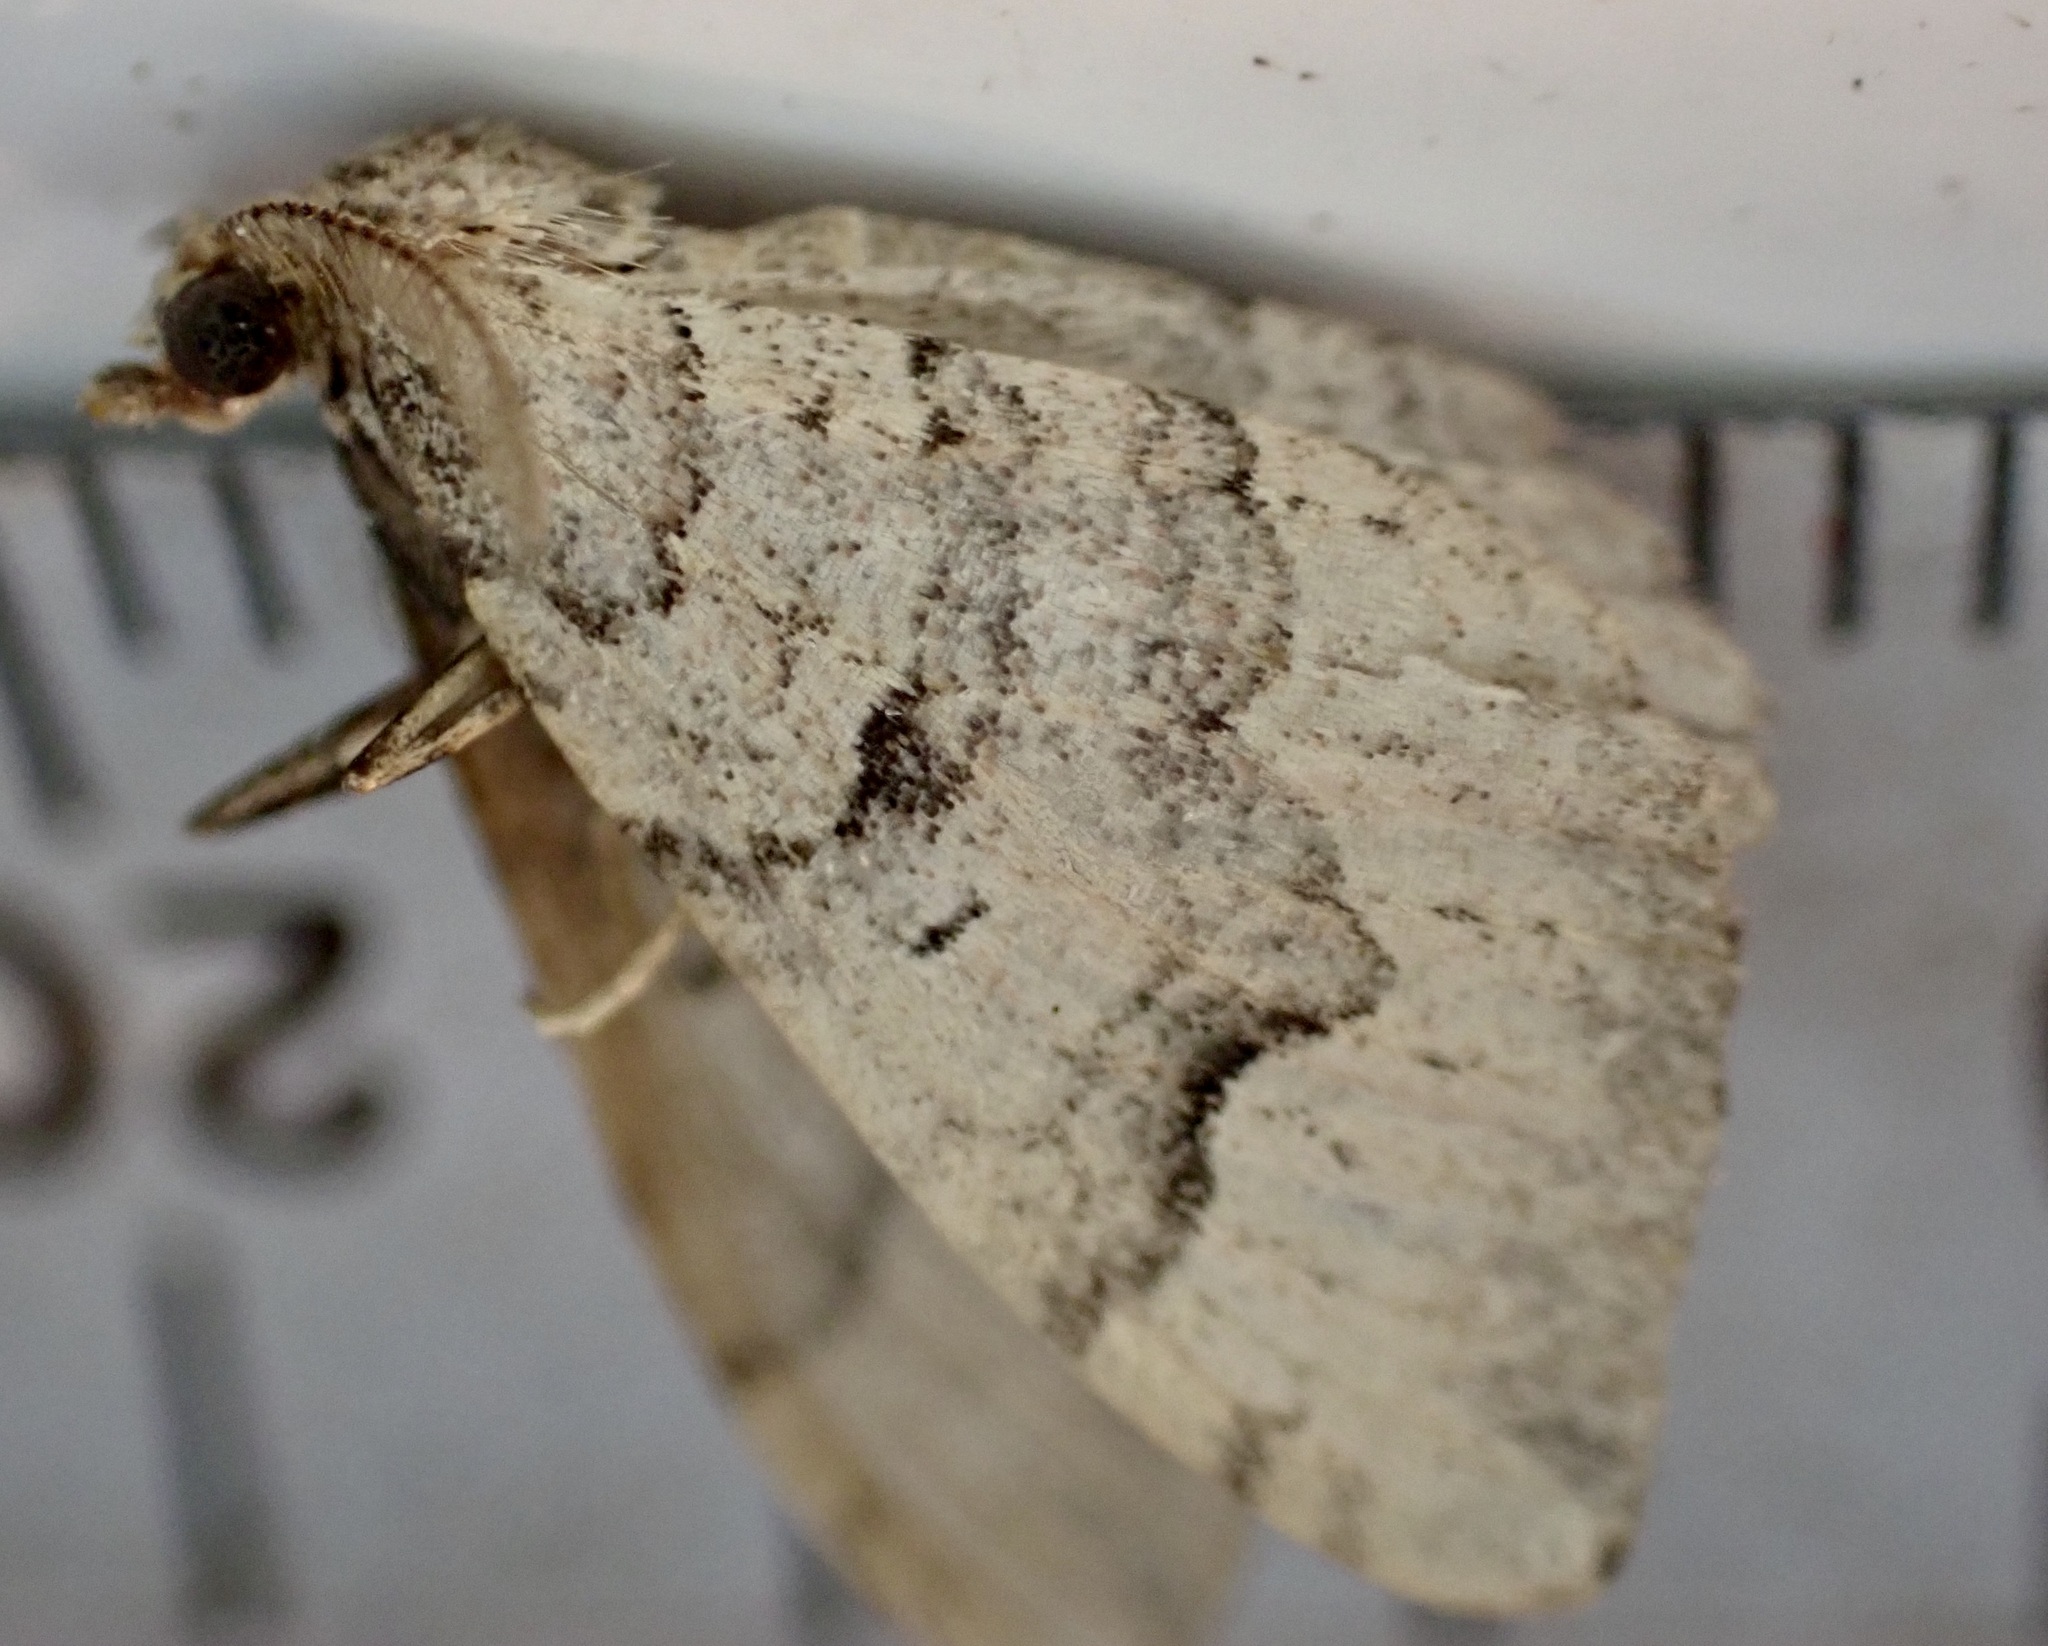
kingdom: Animalia
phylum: Arthropoda
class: Insecta
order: Lepidoptera
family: Geometridae
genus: Epyaxa
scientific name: Epyaxa rosearia
